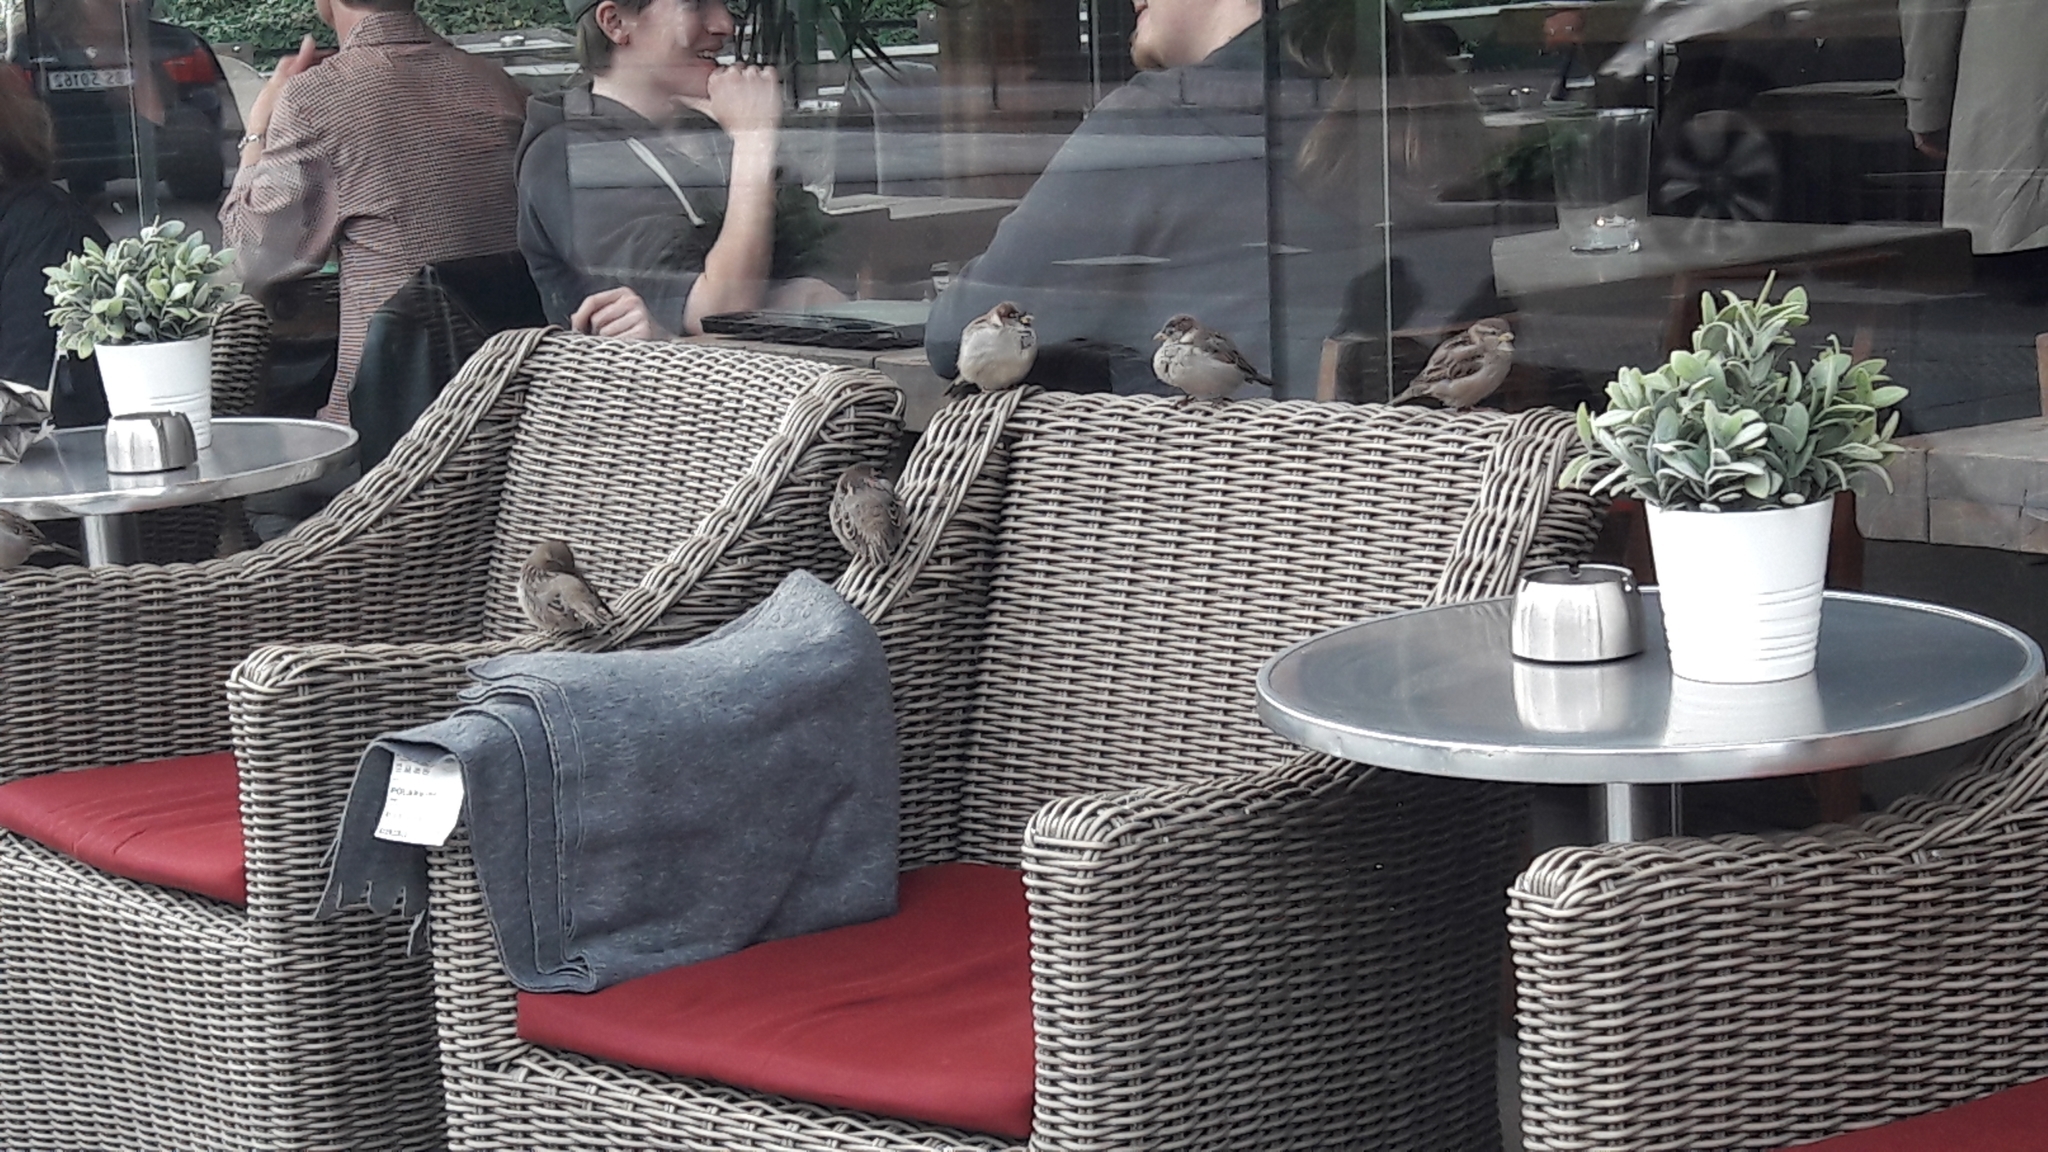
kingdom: Animalia
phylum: Chordata
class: Aves
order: Passeriformes
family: Passeridae
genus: Passer
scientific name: Passer domesticus
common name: House sparrow
